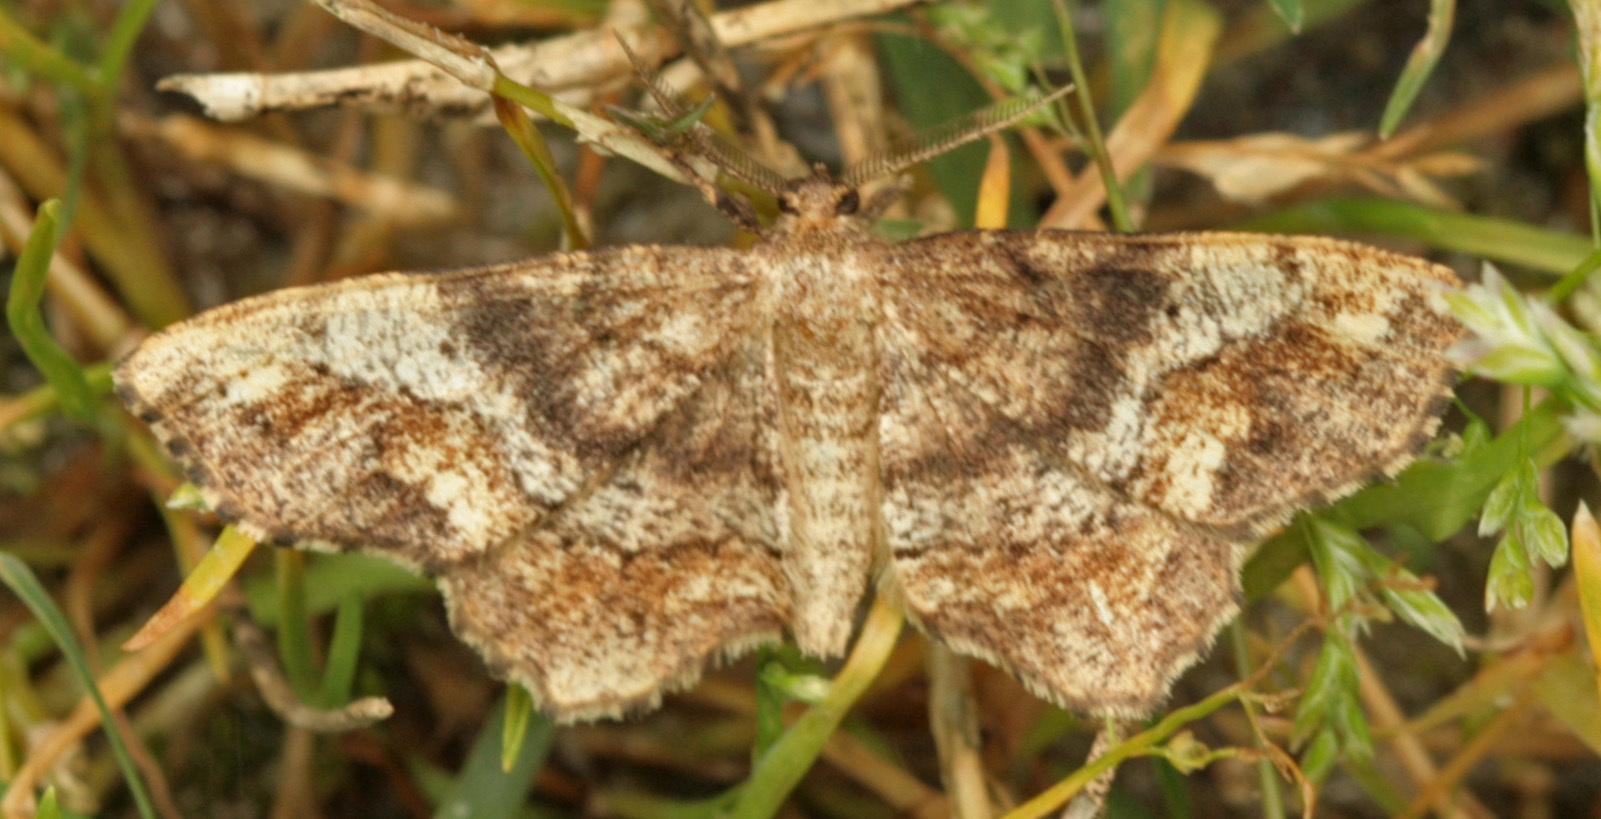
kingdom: Animalia
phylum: Arthropoda
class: Insecta
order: Lepidoptera
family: Geometridae
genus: Hypagyrtis
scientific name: Hypagyrtis unipunctata
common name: One-spotted variant
